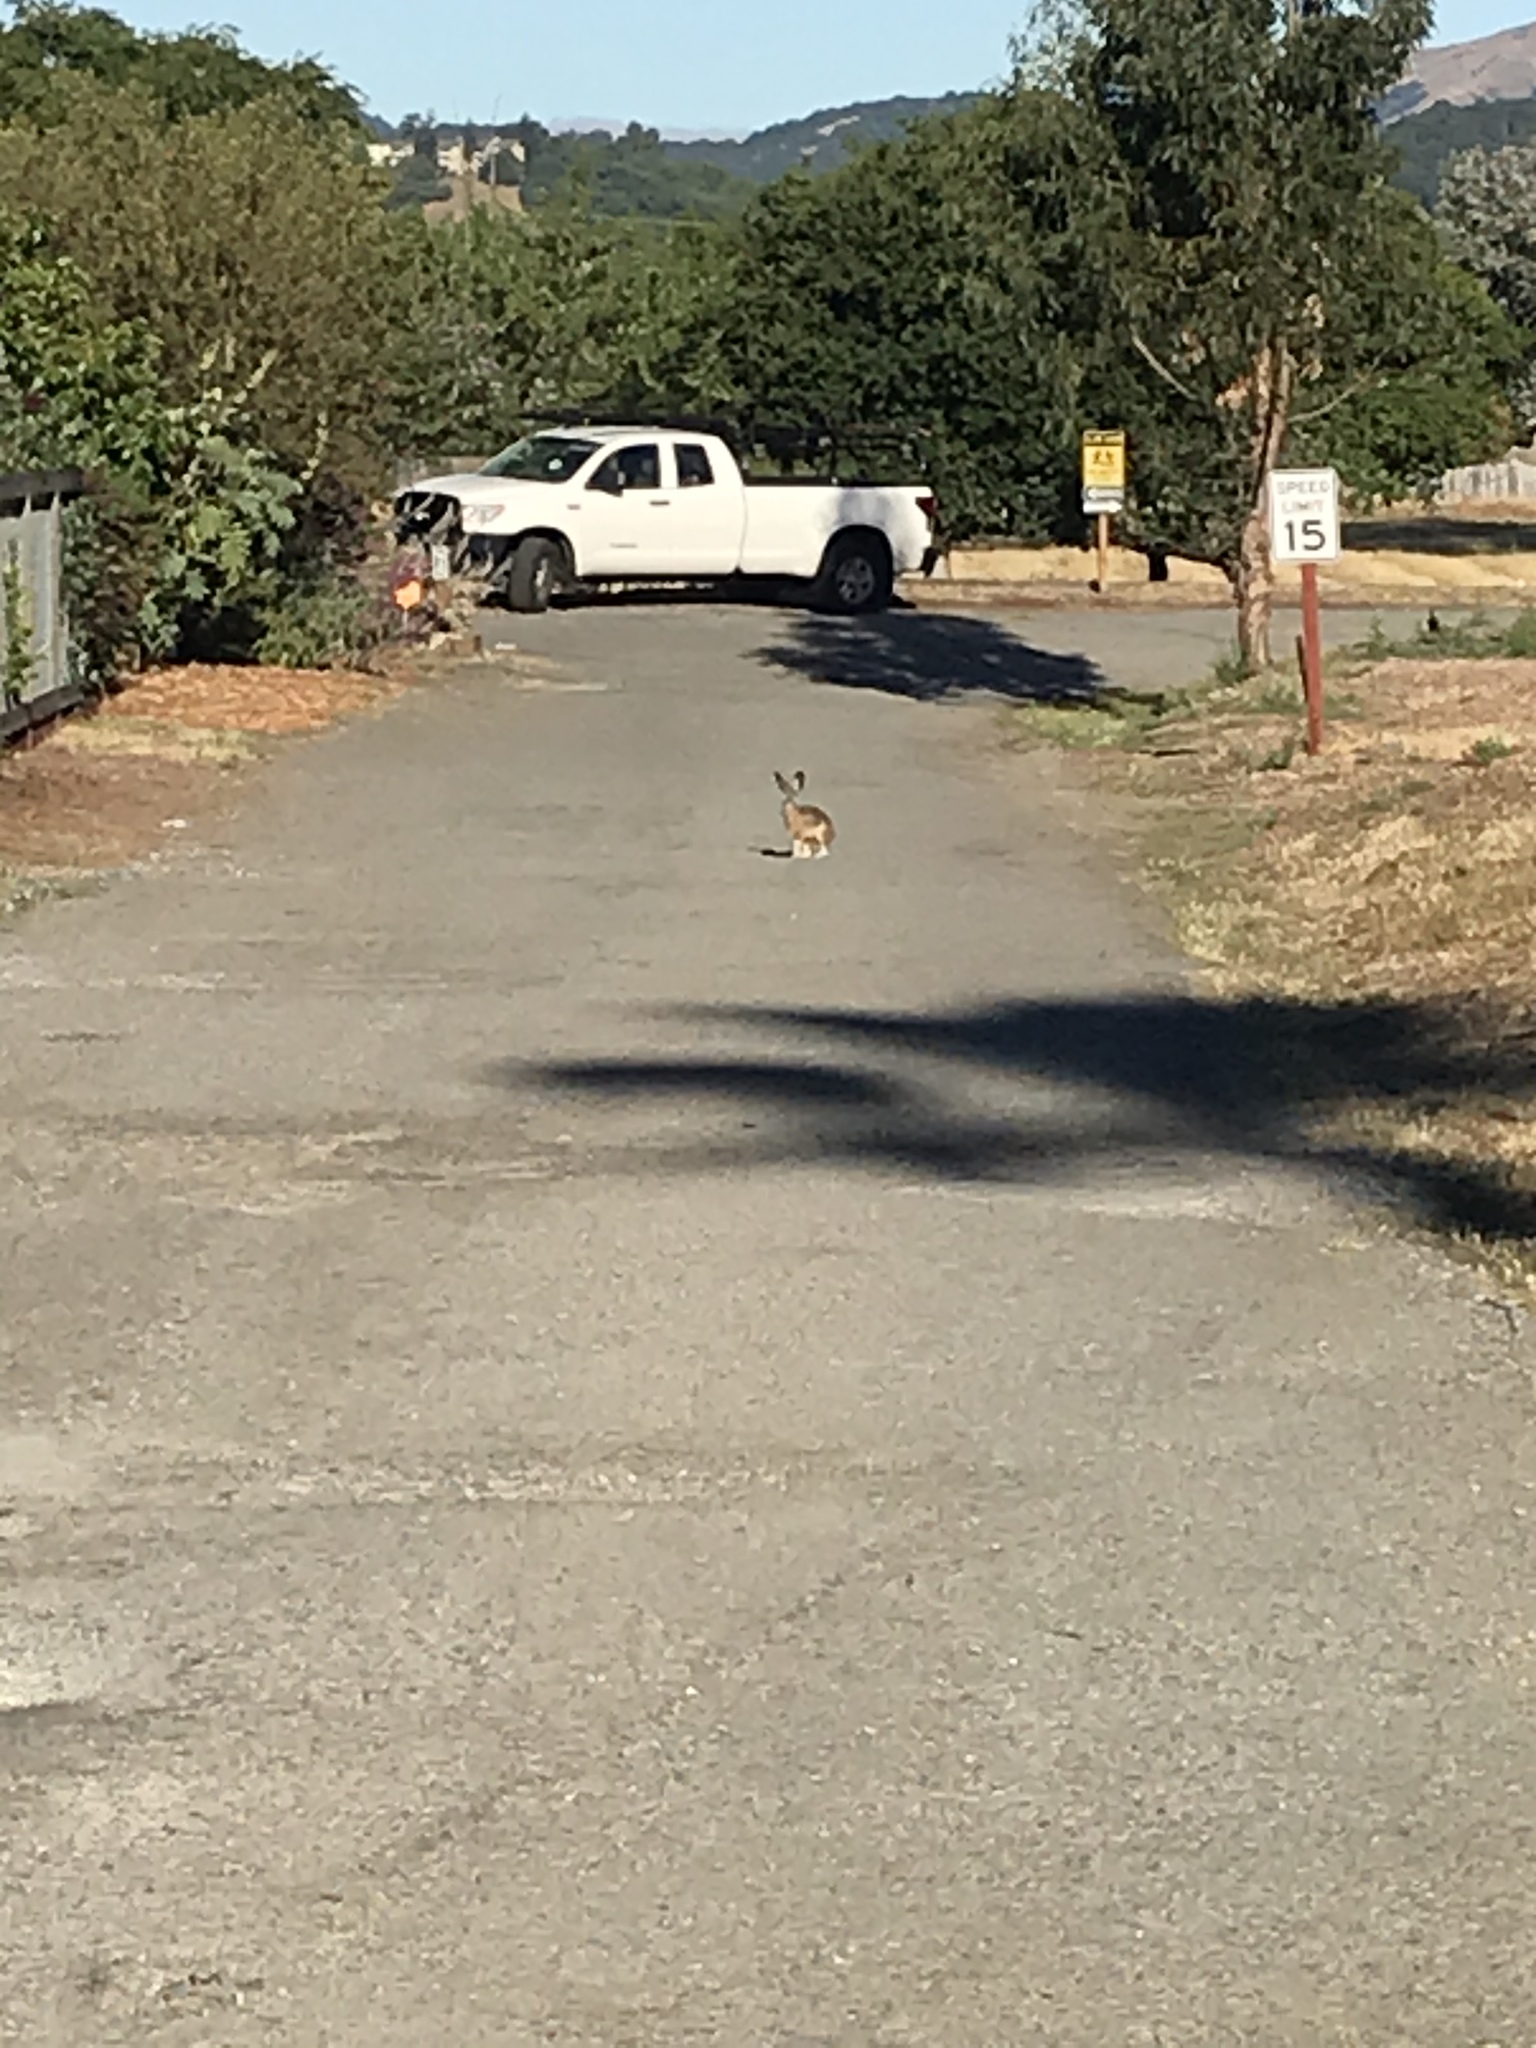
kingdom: Animalia
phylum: Chordata
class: Mammalia
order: Lagomorpha
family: Leporidae
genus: Lepus
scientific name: Lepus californicus
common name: Black-tailed jackrabbit
